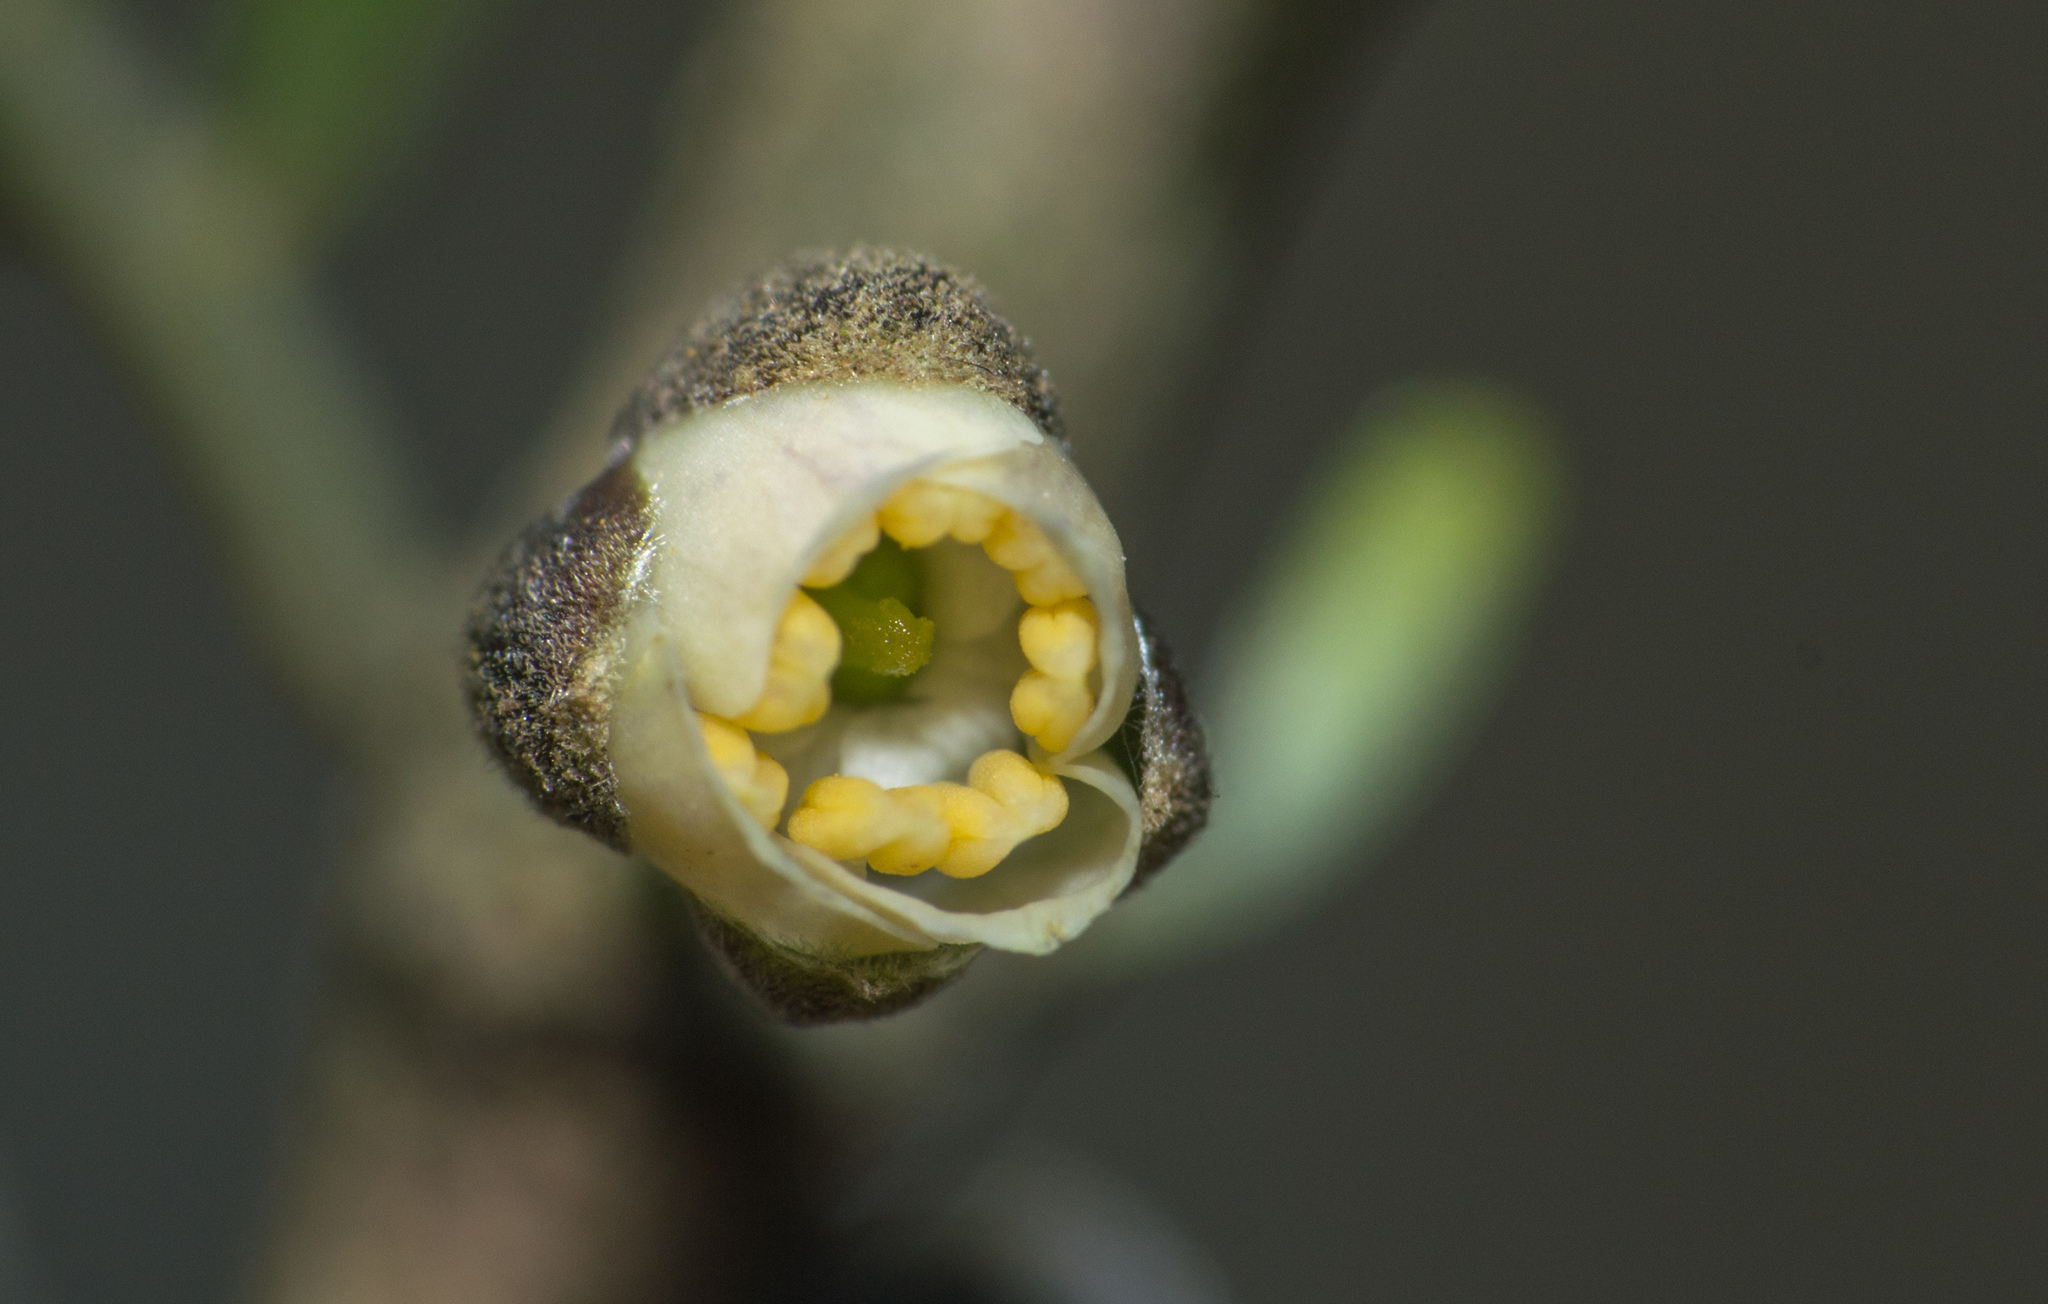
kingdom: Plantae
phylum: Tracheophyta
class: Magnoliopsida
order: Zygophyllales
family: Zygophyllaceae
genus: Porlieria
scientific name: Porlieria microphylla
